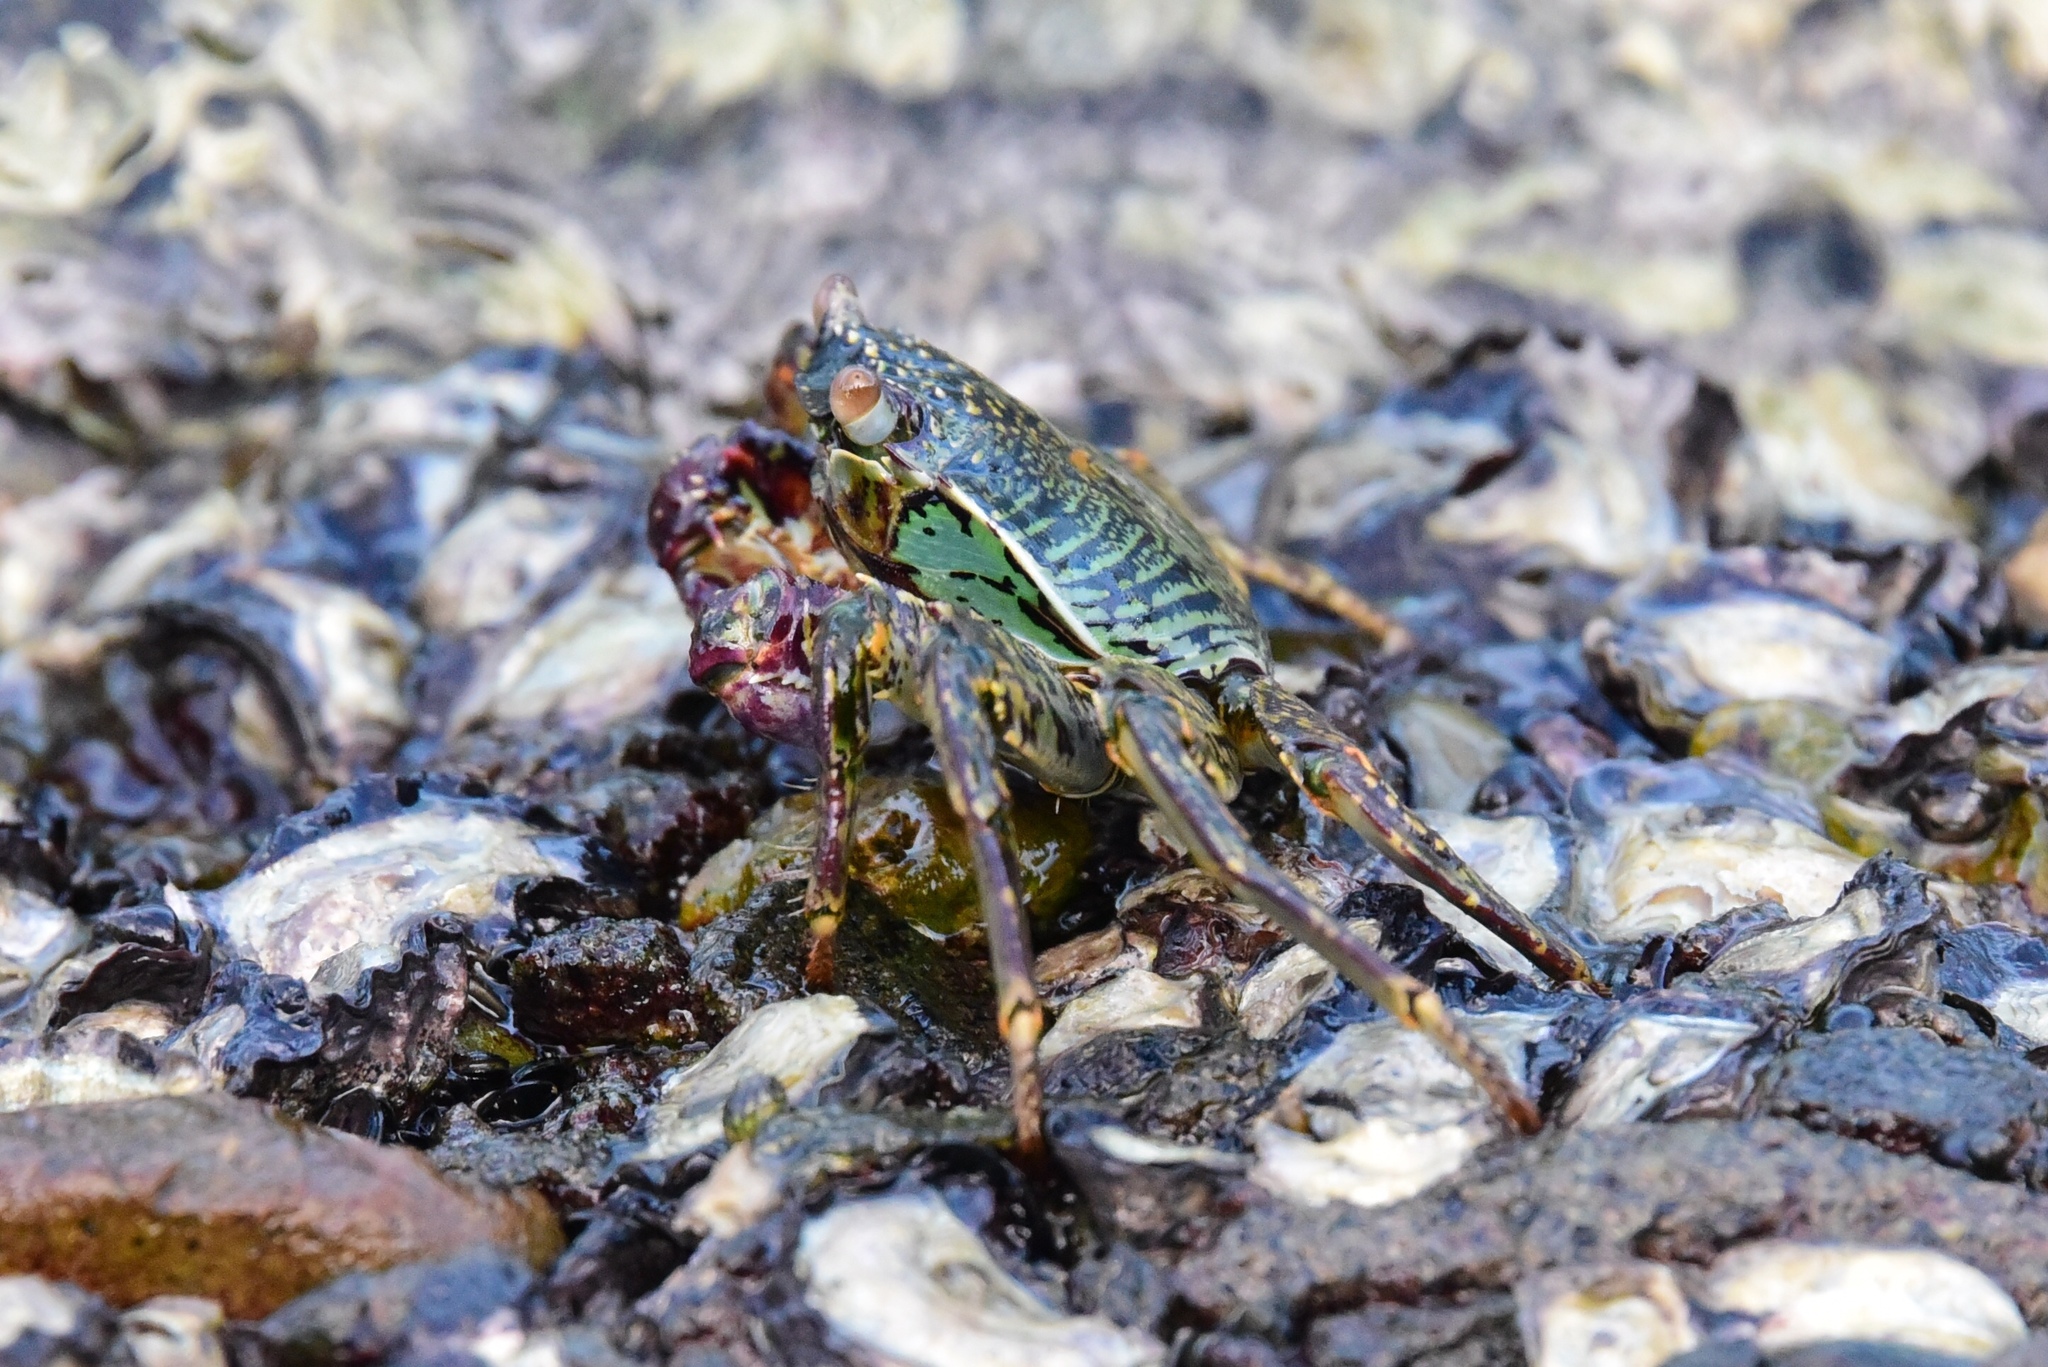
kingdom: Animalia
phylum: Arthropoda
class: Malacostraca
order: Decapoda
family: Grapsidae
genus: Grapsus
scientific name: Grapsus albolineatus
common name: Mottled lightfoot crab
